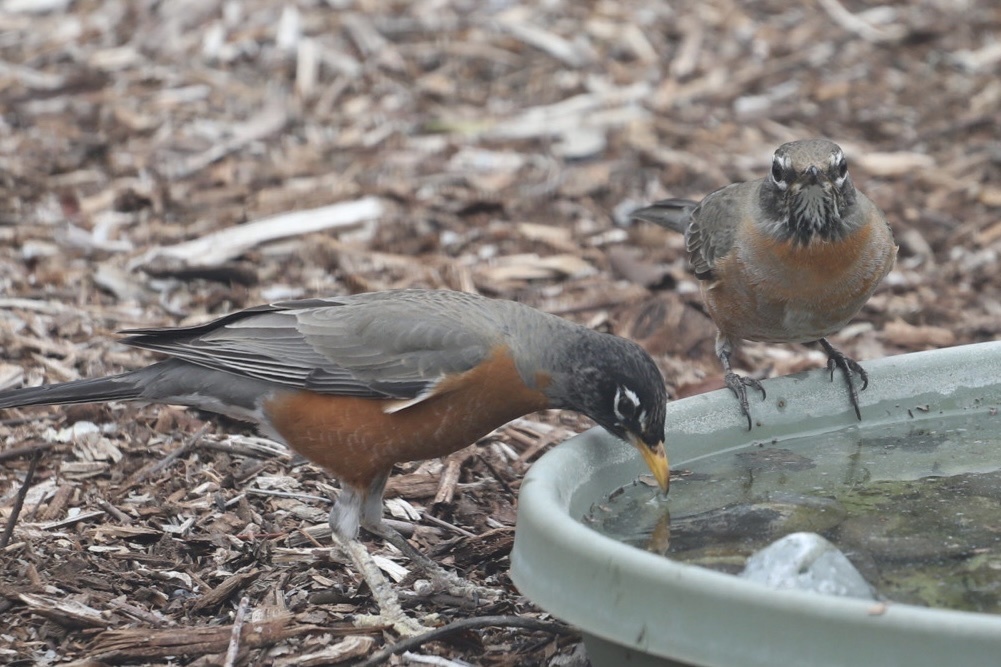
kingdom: Animalia
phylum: Chordata
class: Aves
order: Passeriformes
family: Turdidae
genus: Turdus
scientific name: Turdus migratorius
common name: American robin
